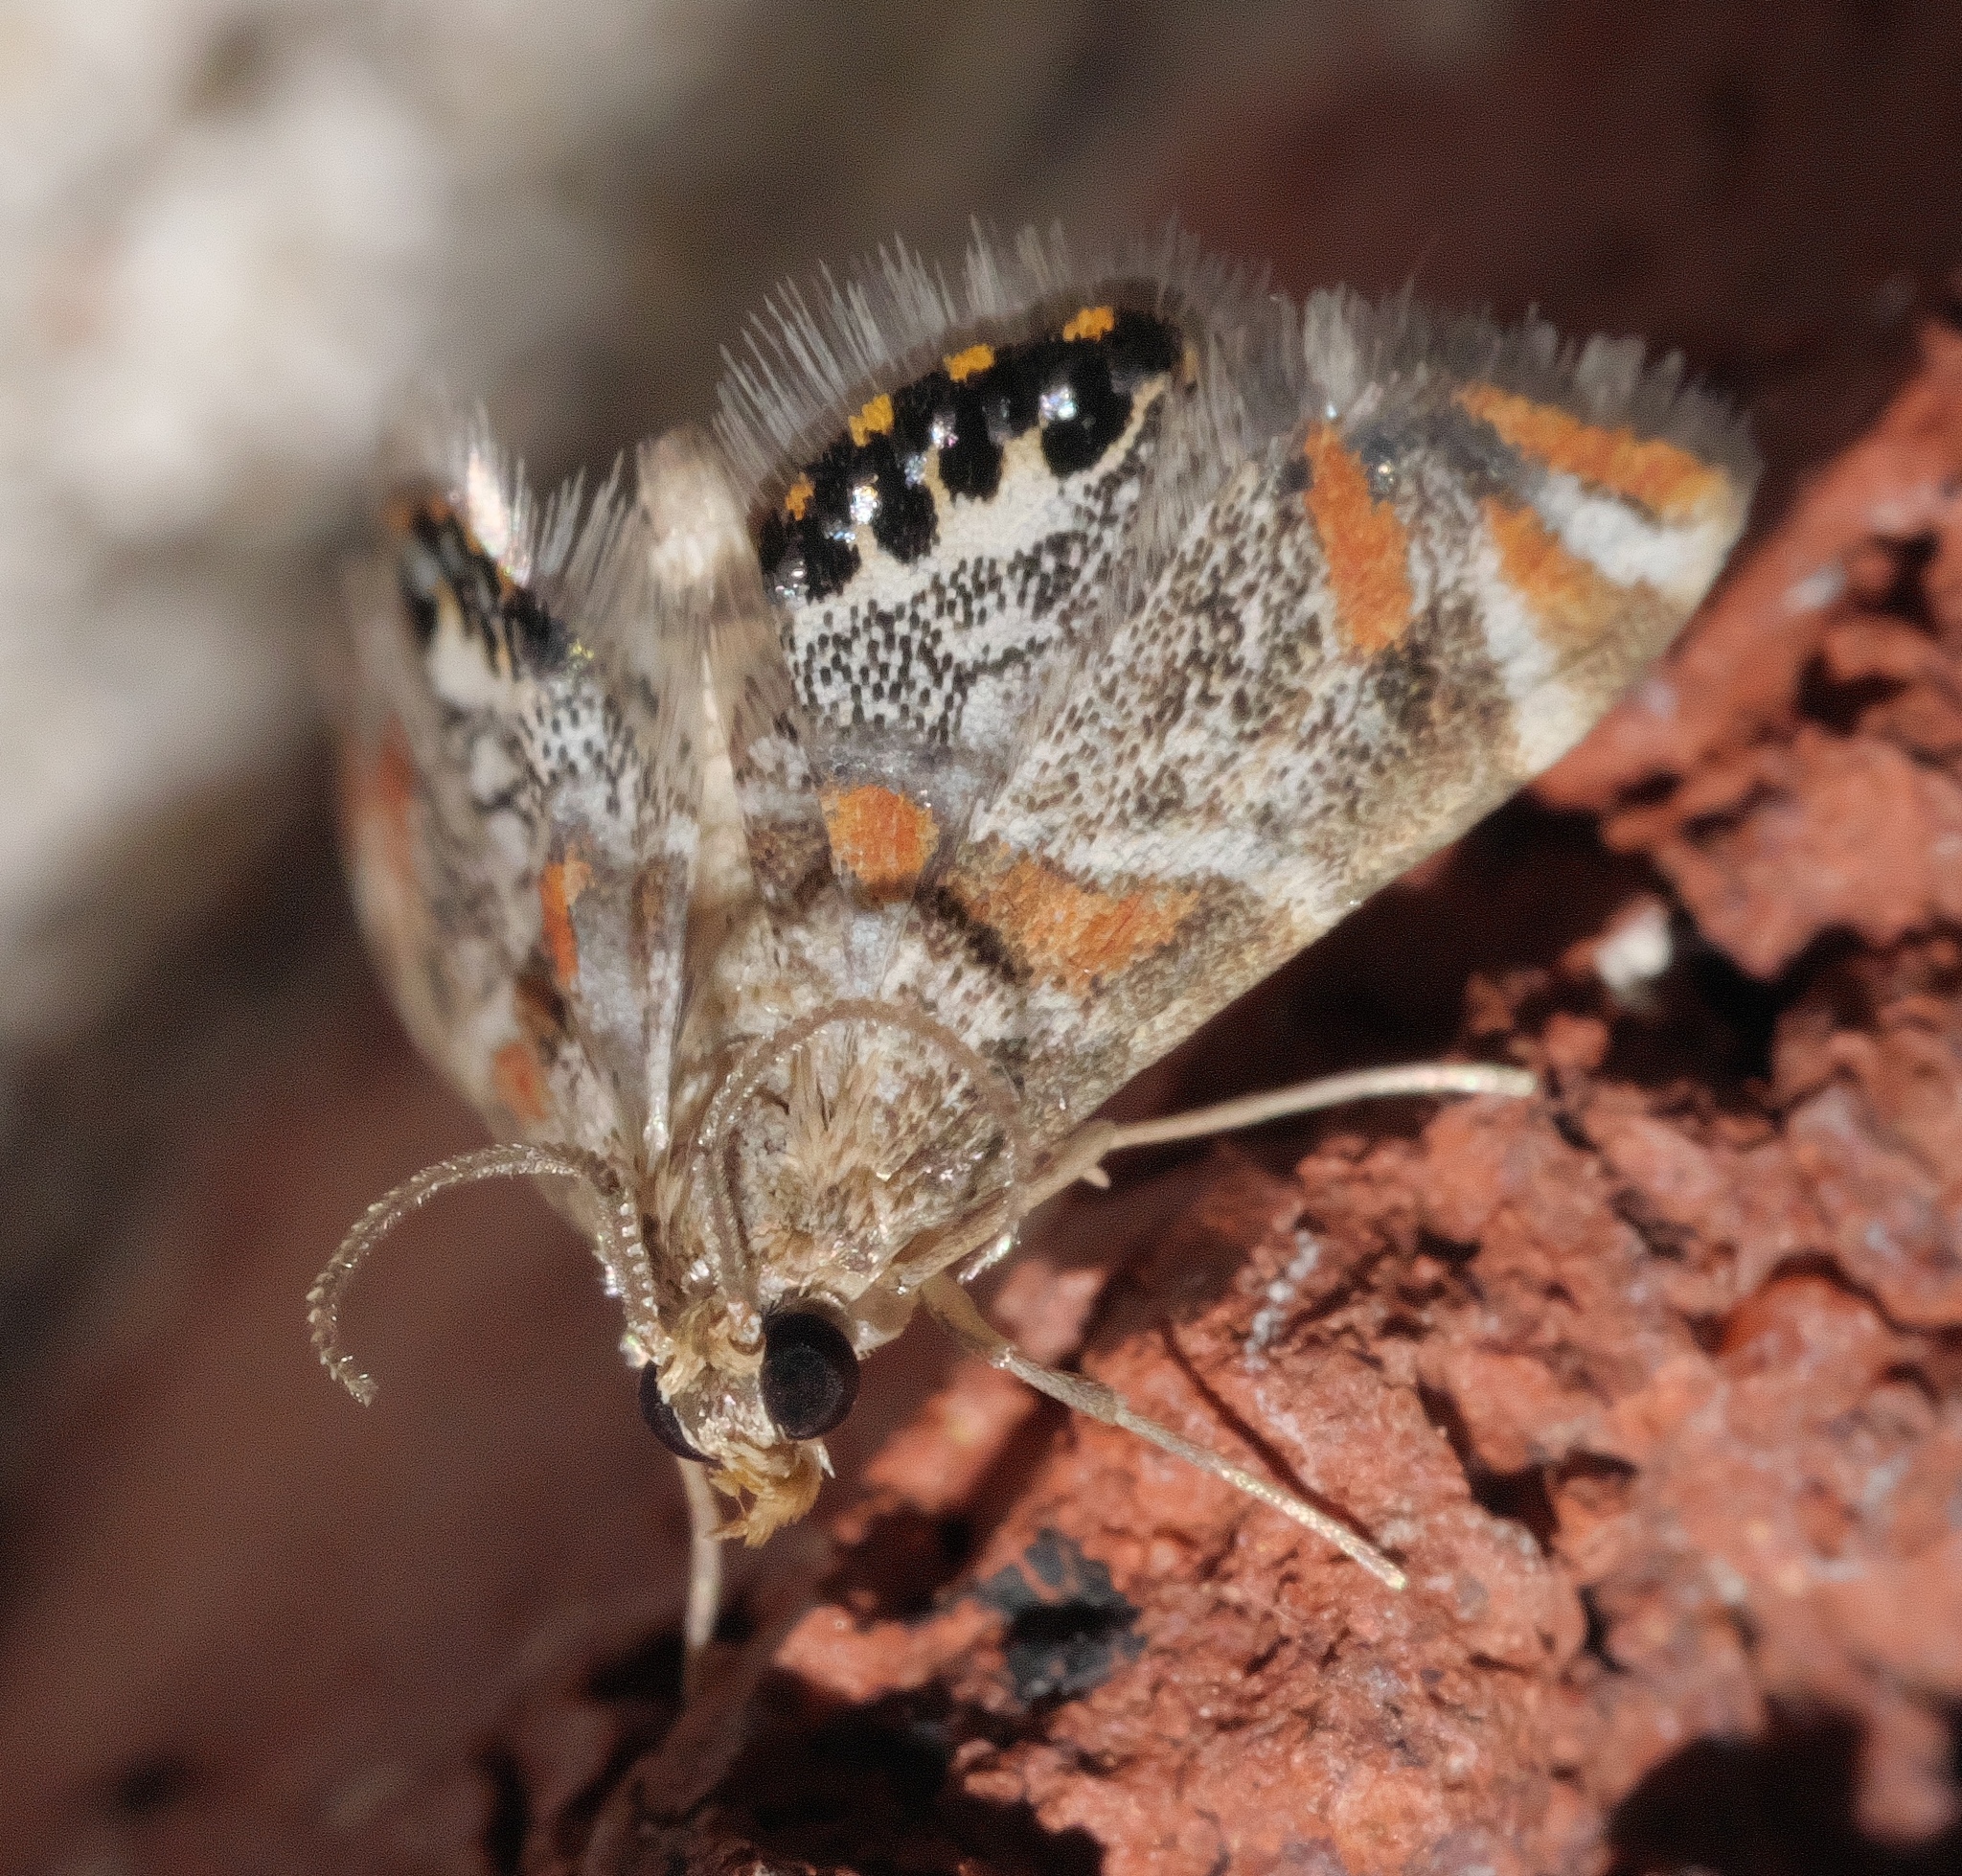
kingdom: Animalia
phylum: Arthropoda
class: Insecta
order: Lepidoptera
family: Crambidae
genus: Petrophila
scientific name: Petrophila jaliscalis
